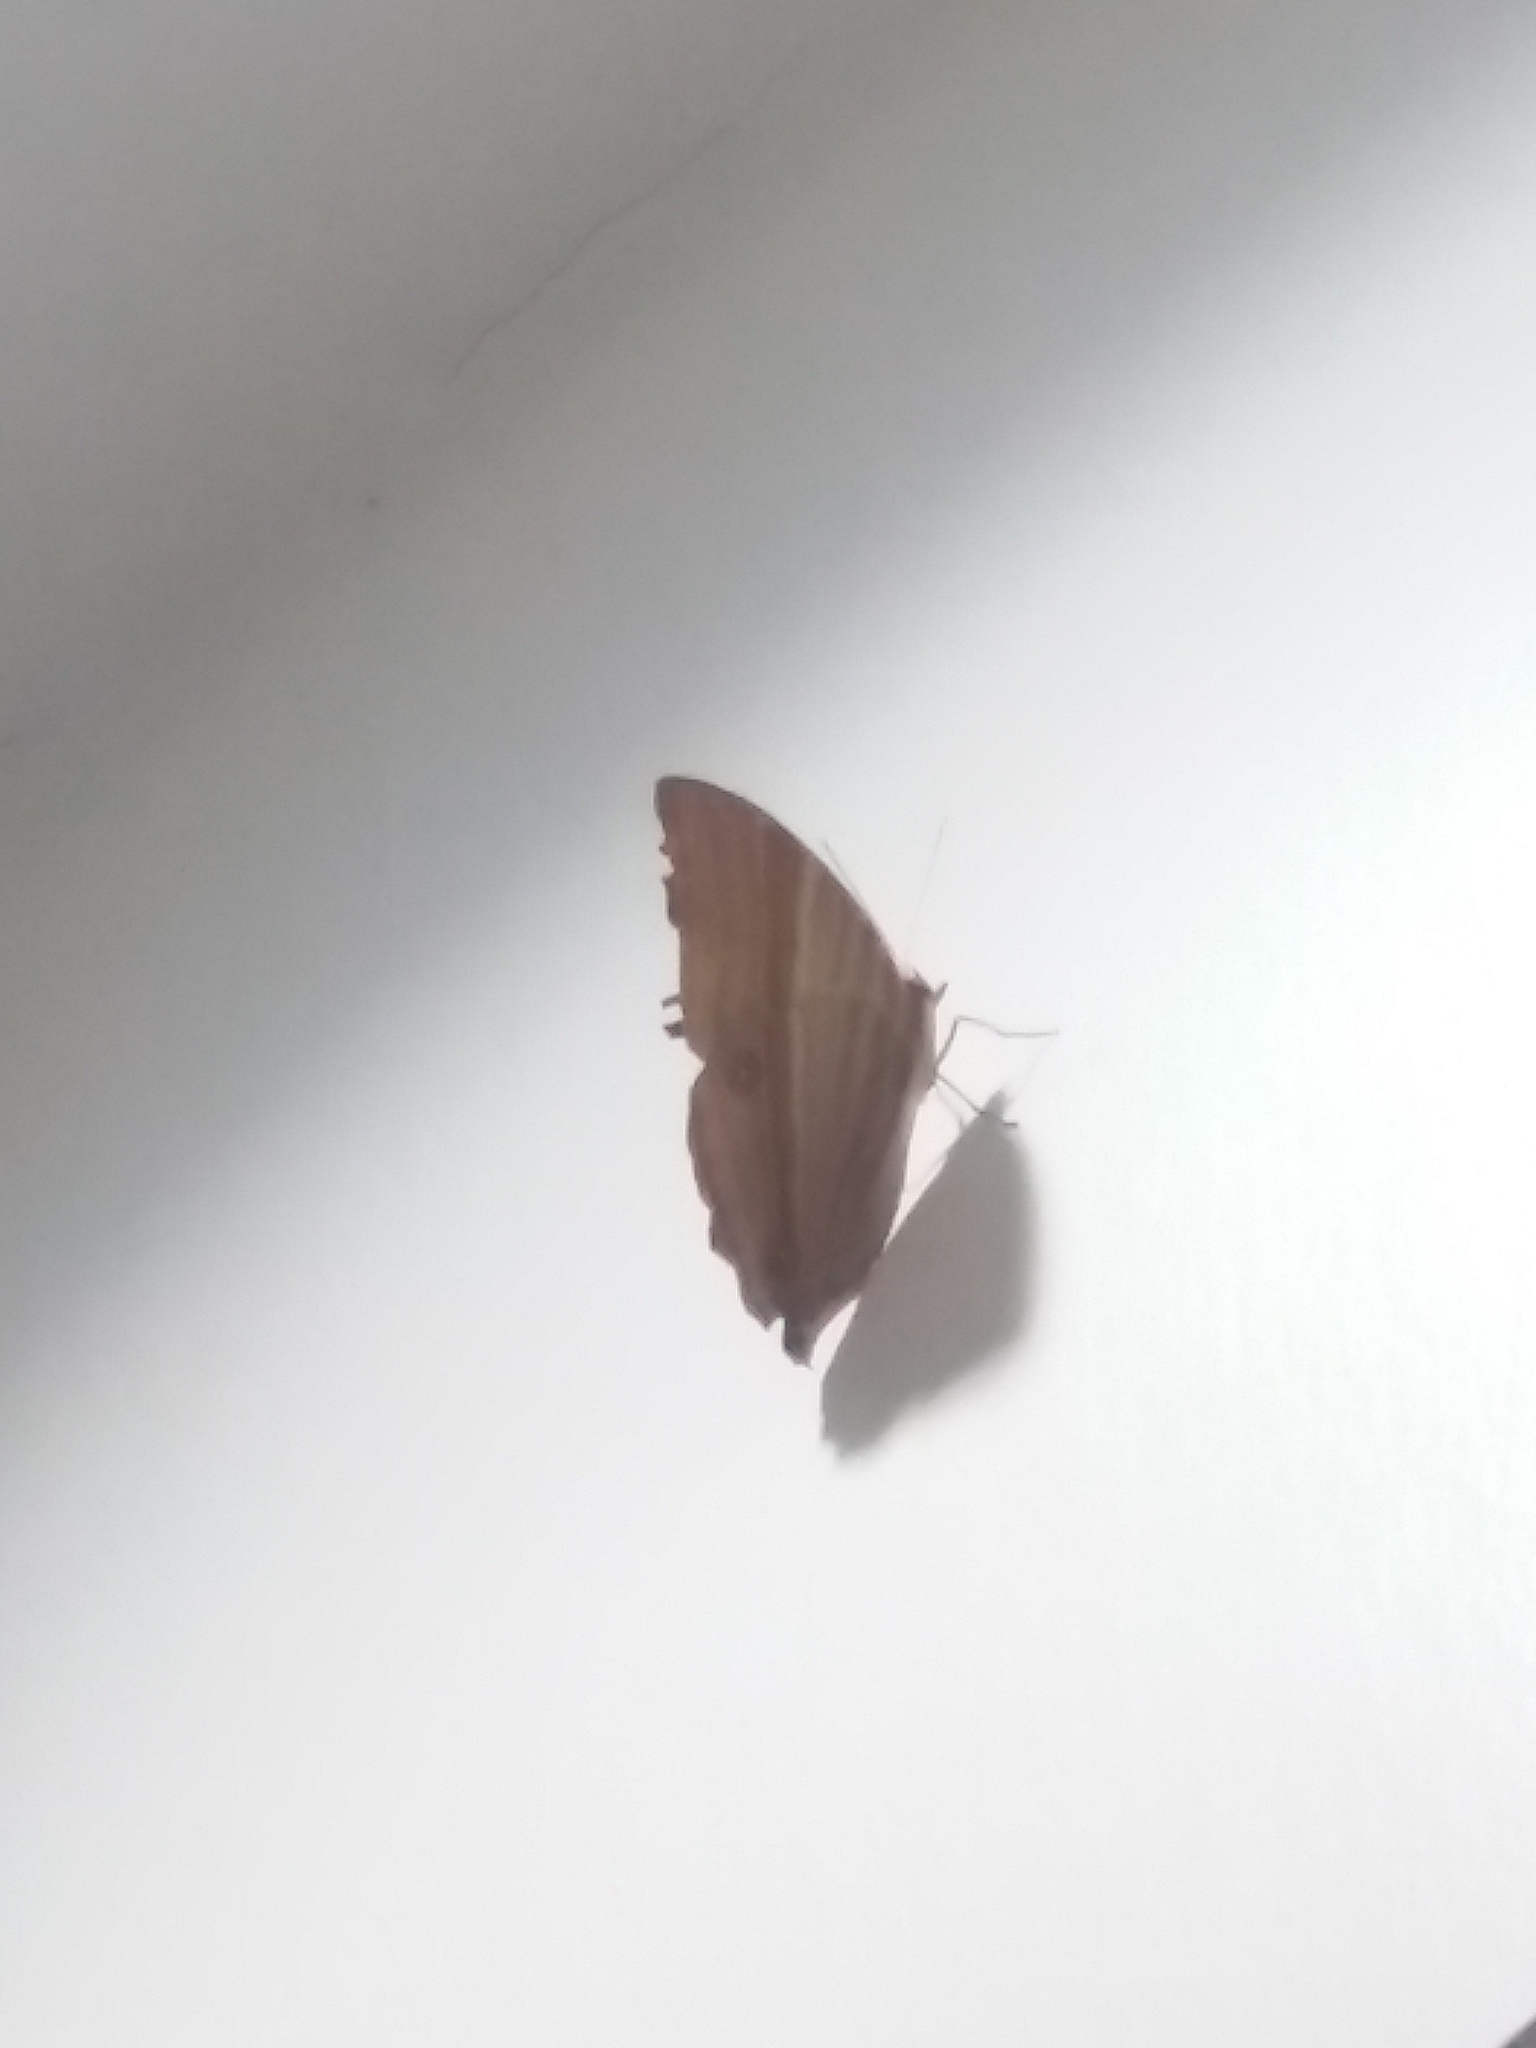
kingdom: Animalia
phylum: Arthropoda
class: Insecta
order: Lepidoptera
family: Nymphalidae
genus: Amathusia
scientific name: Amathusia phidippus
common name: Palm king
